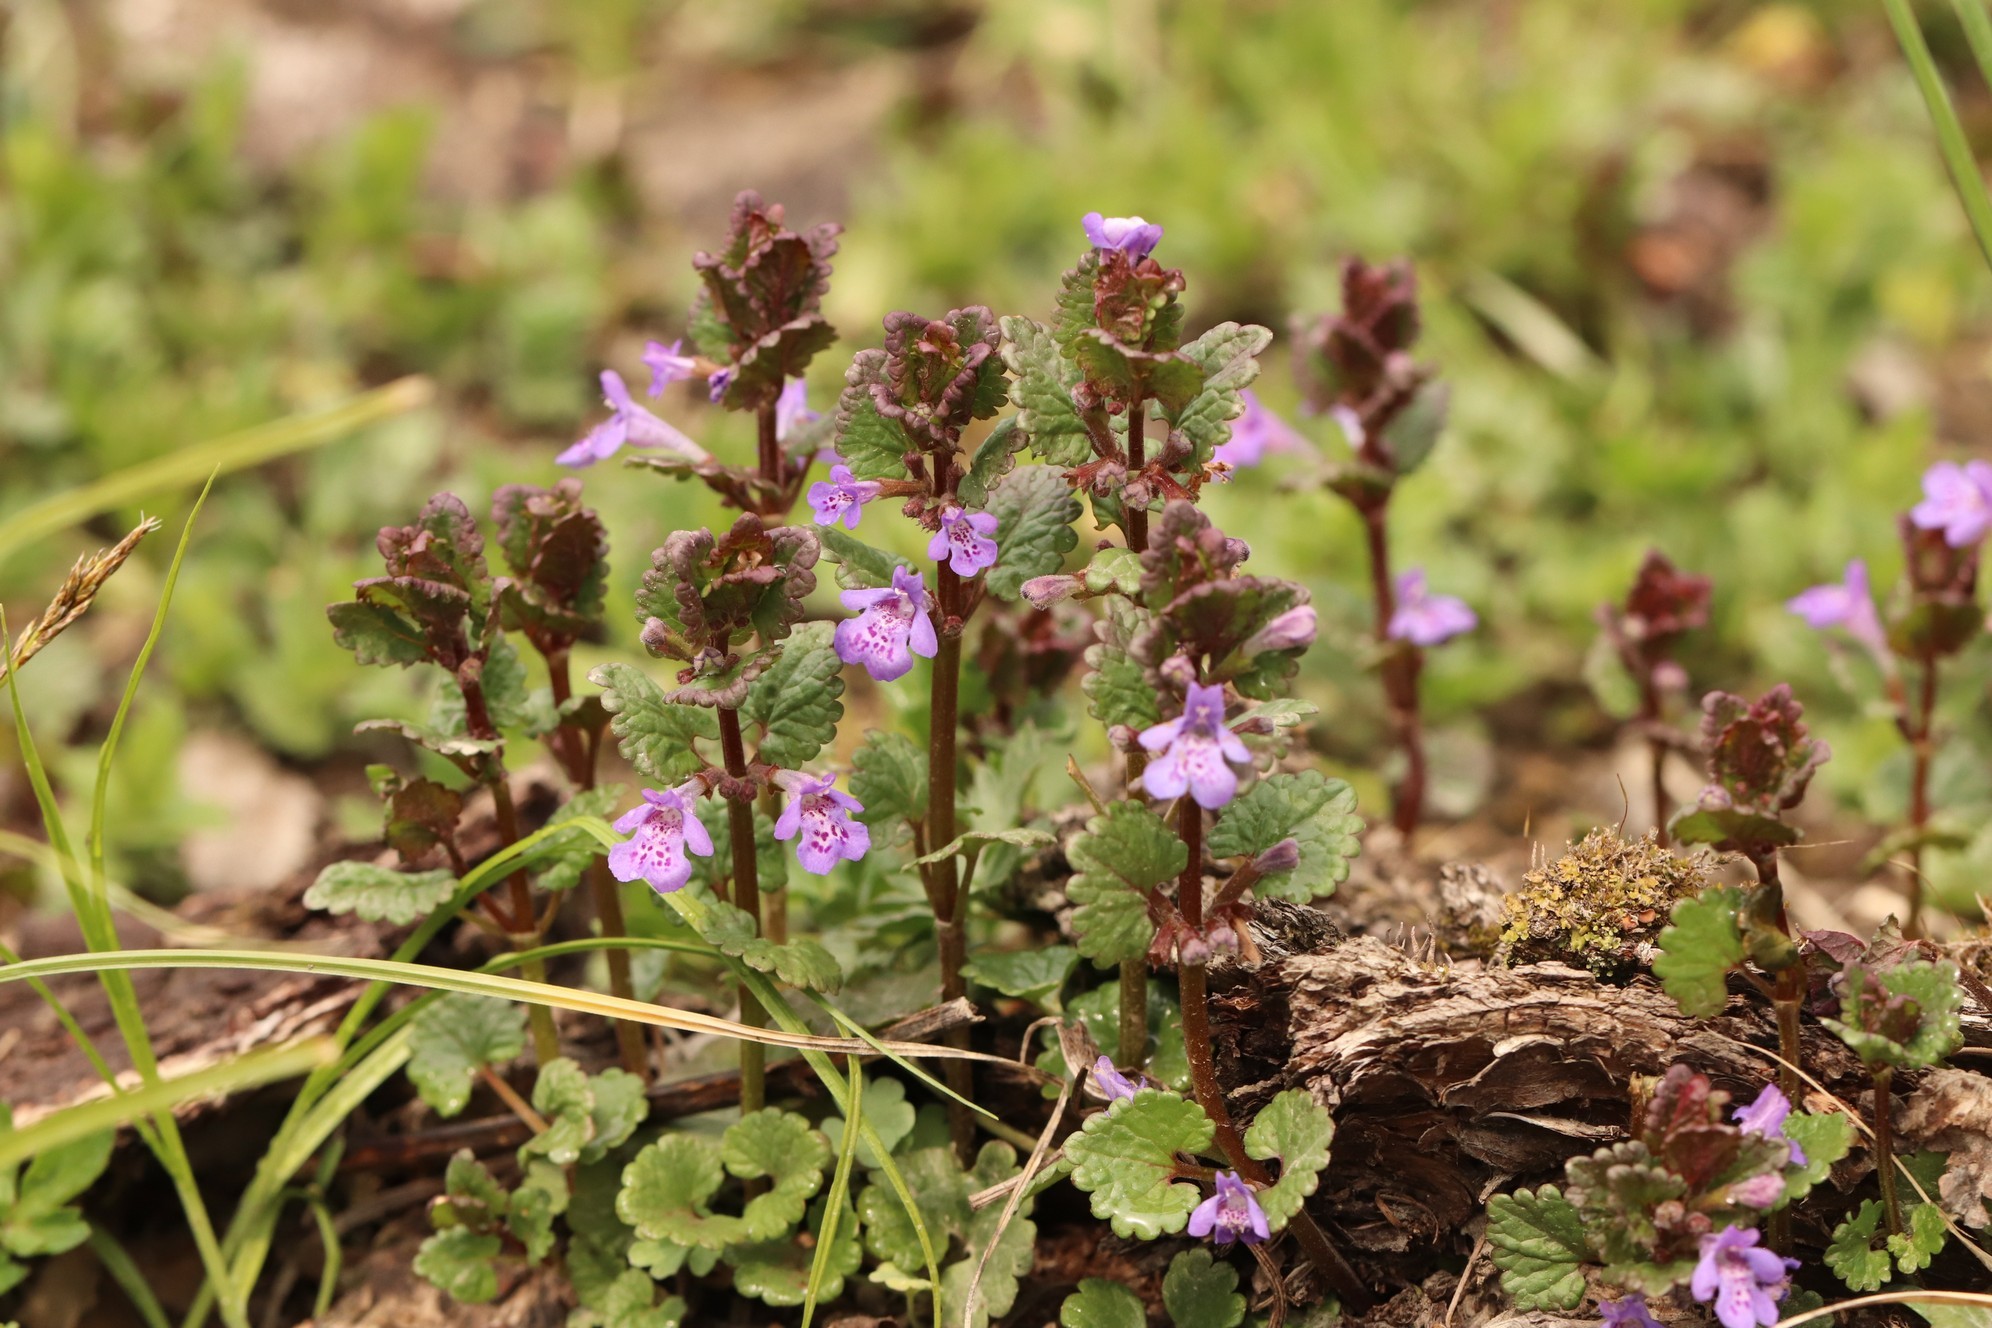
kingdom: Plantae
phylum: Tracheophyta
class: Magnoliopsida
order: Lamiales
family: Lamiaceae
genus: Glechoma
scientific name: Glechoma hederacea
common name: Ground ivy
